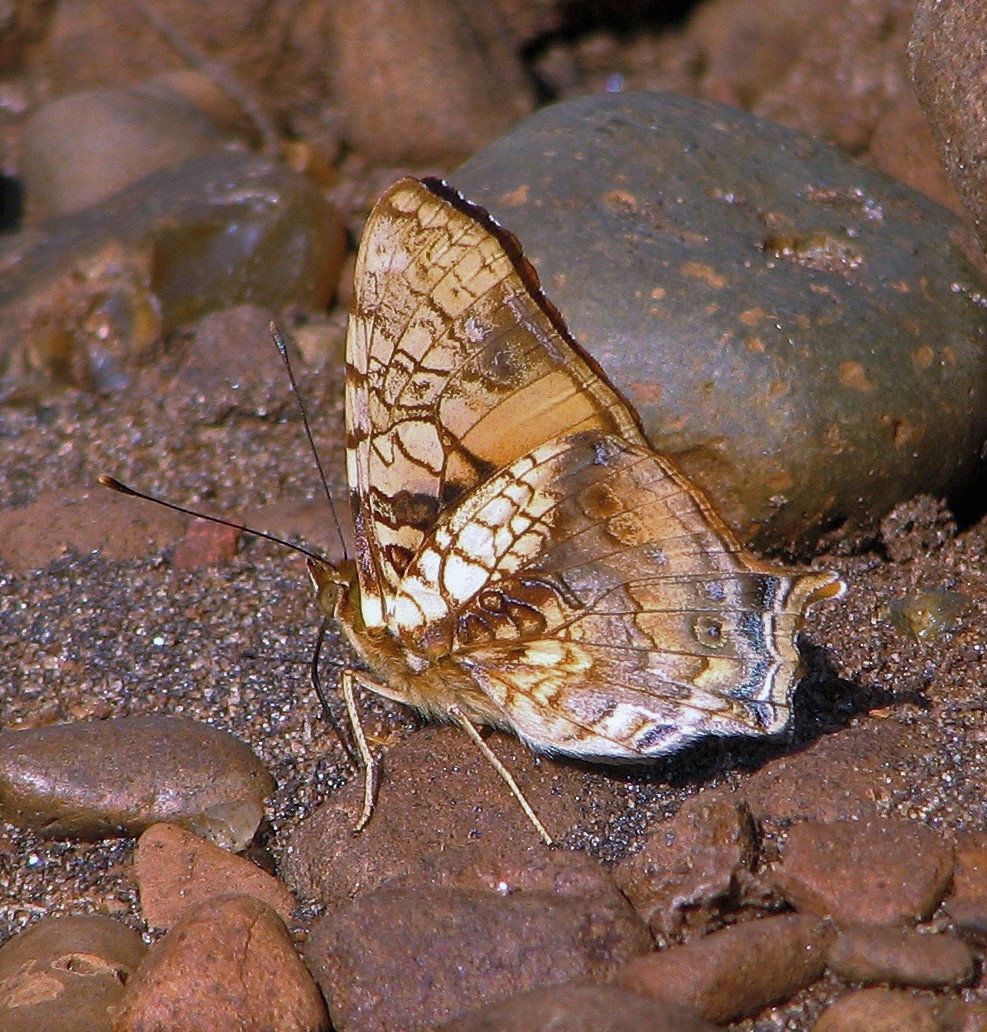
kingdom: Animalia
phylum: Arthropoda
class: Insecta
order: Lepidoptera
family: Nymphalidae
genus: Hypanartia
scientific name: Hypanartia lethe
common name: Orange mapwing
